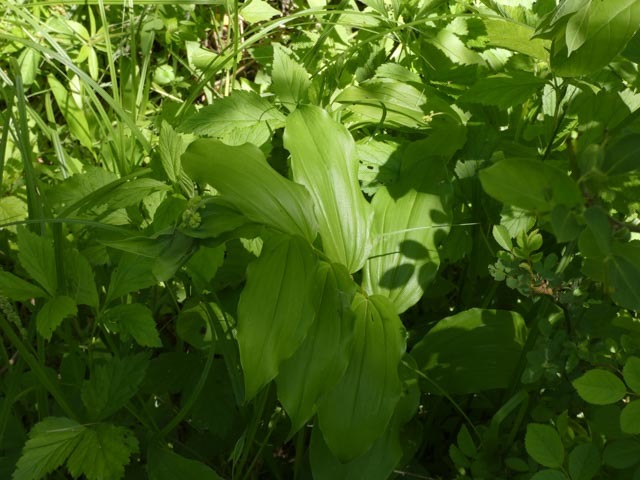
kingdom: Plantae
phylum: Tracheophyta
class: Liliopsida
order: Asparagales
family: Asparagaceae
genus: Maianthemum
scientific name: Maianthemum racemosum
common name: False spikenard
